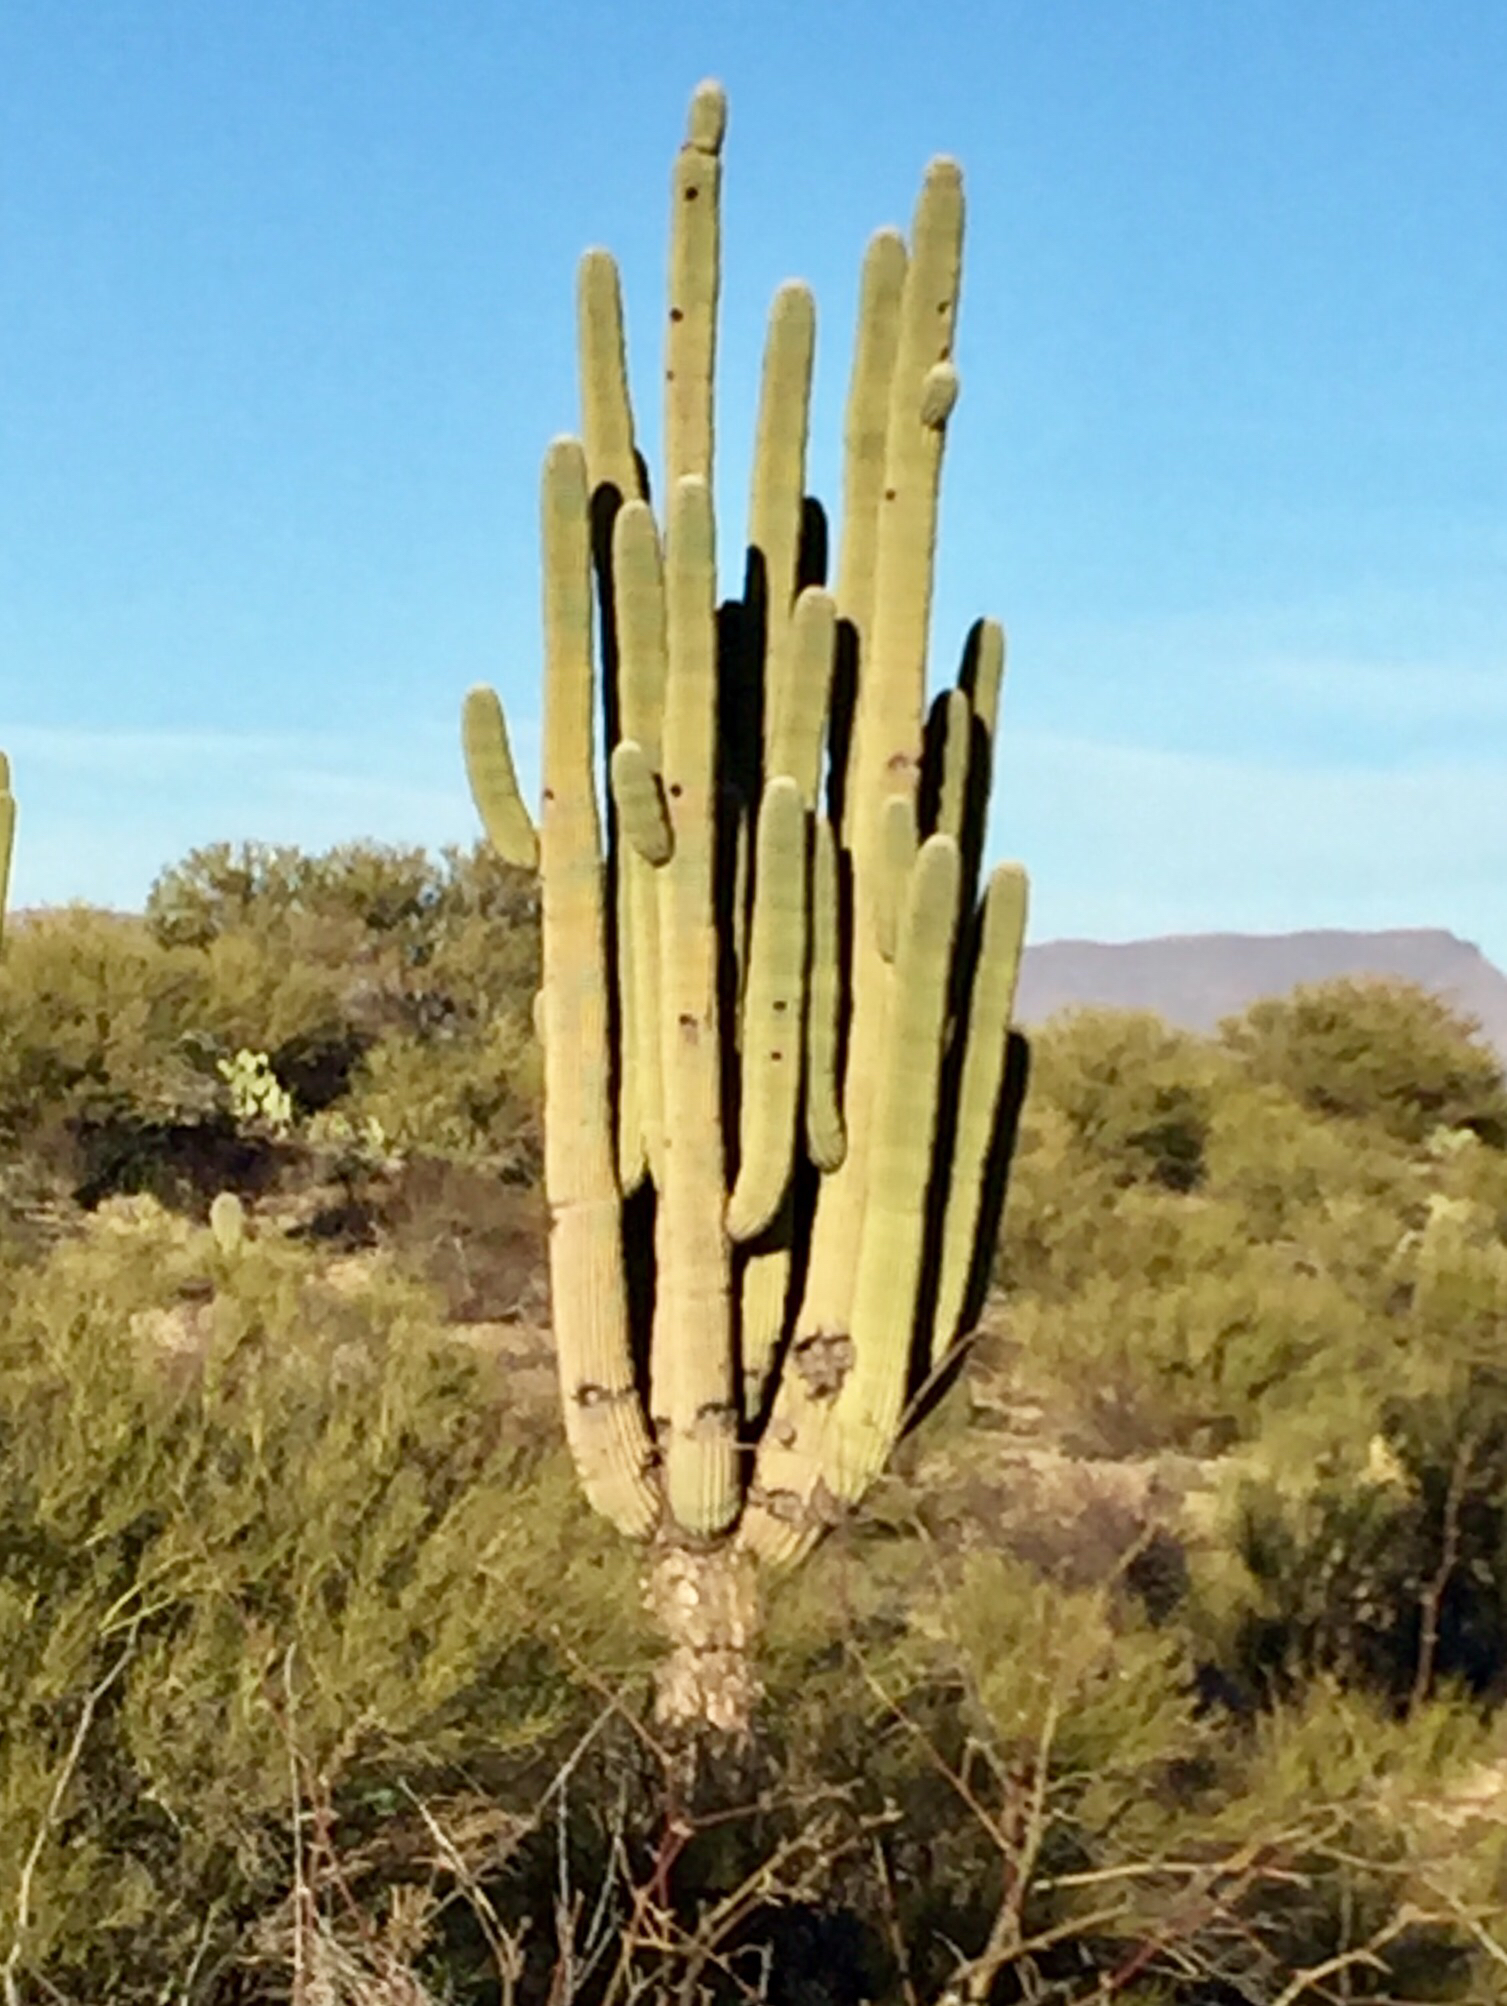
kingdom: Plantae
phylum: Tracheophyta
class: Magnoliopsida
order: Caryophyllales
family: Cactaceae
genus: Carnegiea
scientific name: Carnegiea gigantea
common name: Saguaro
